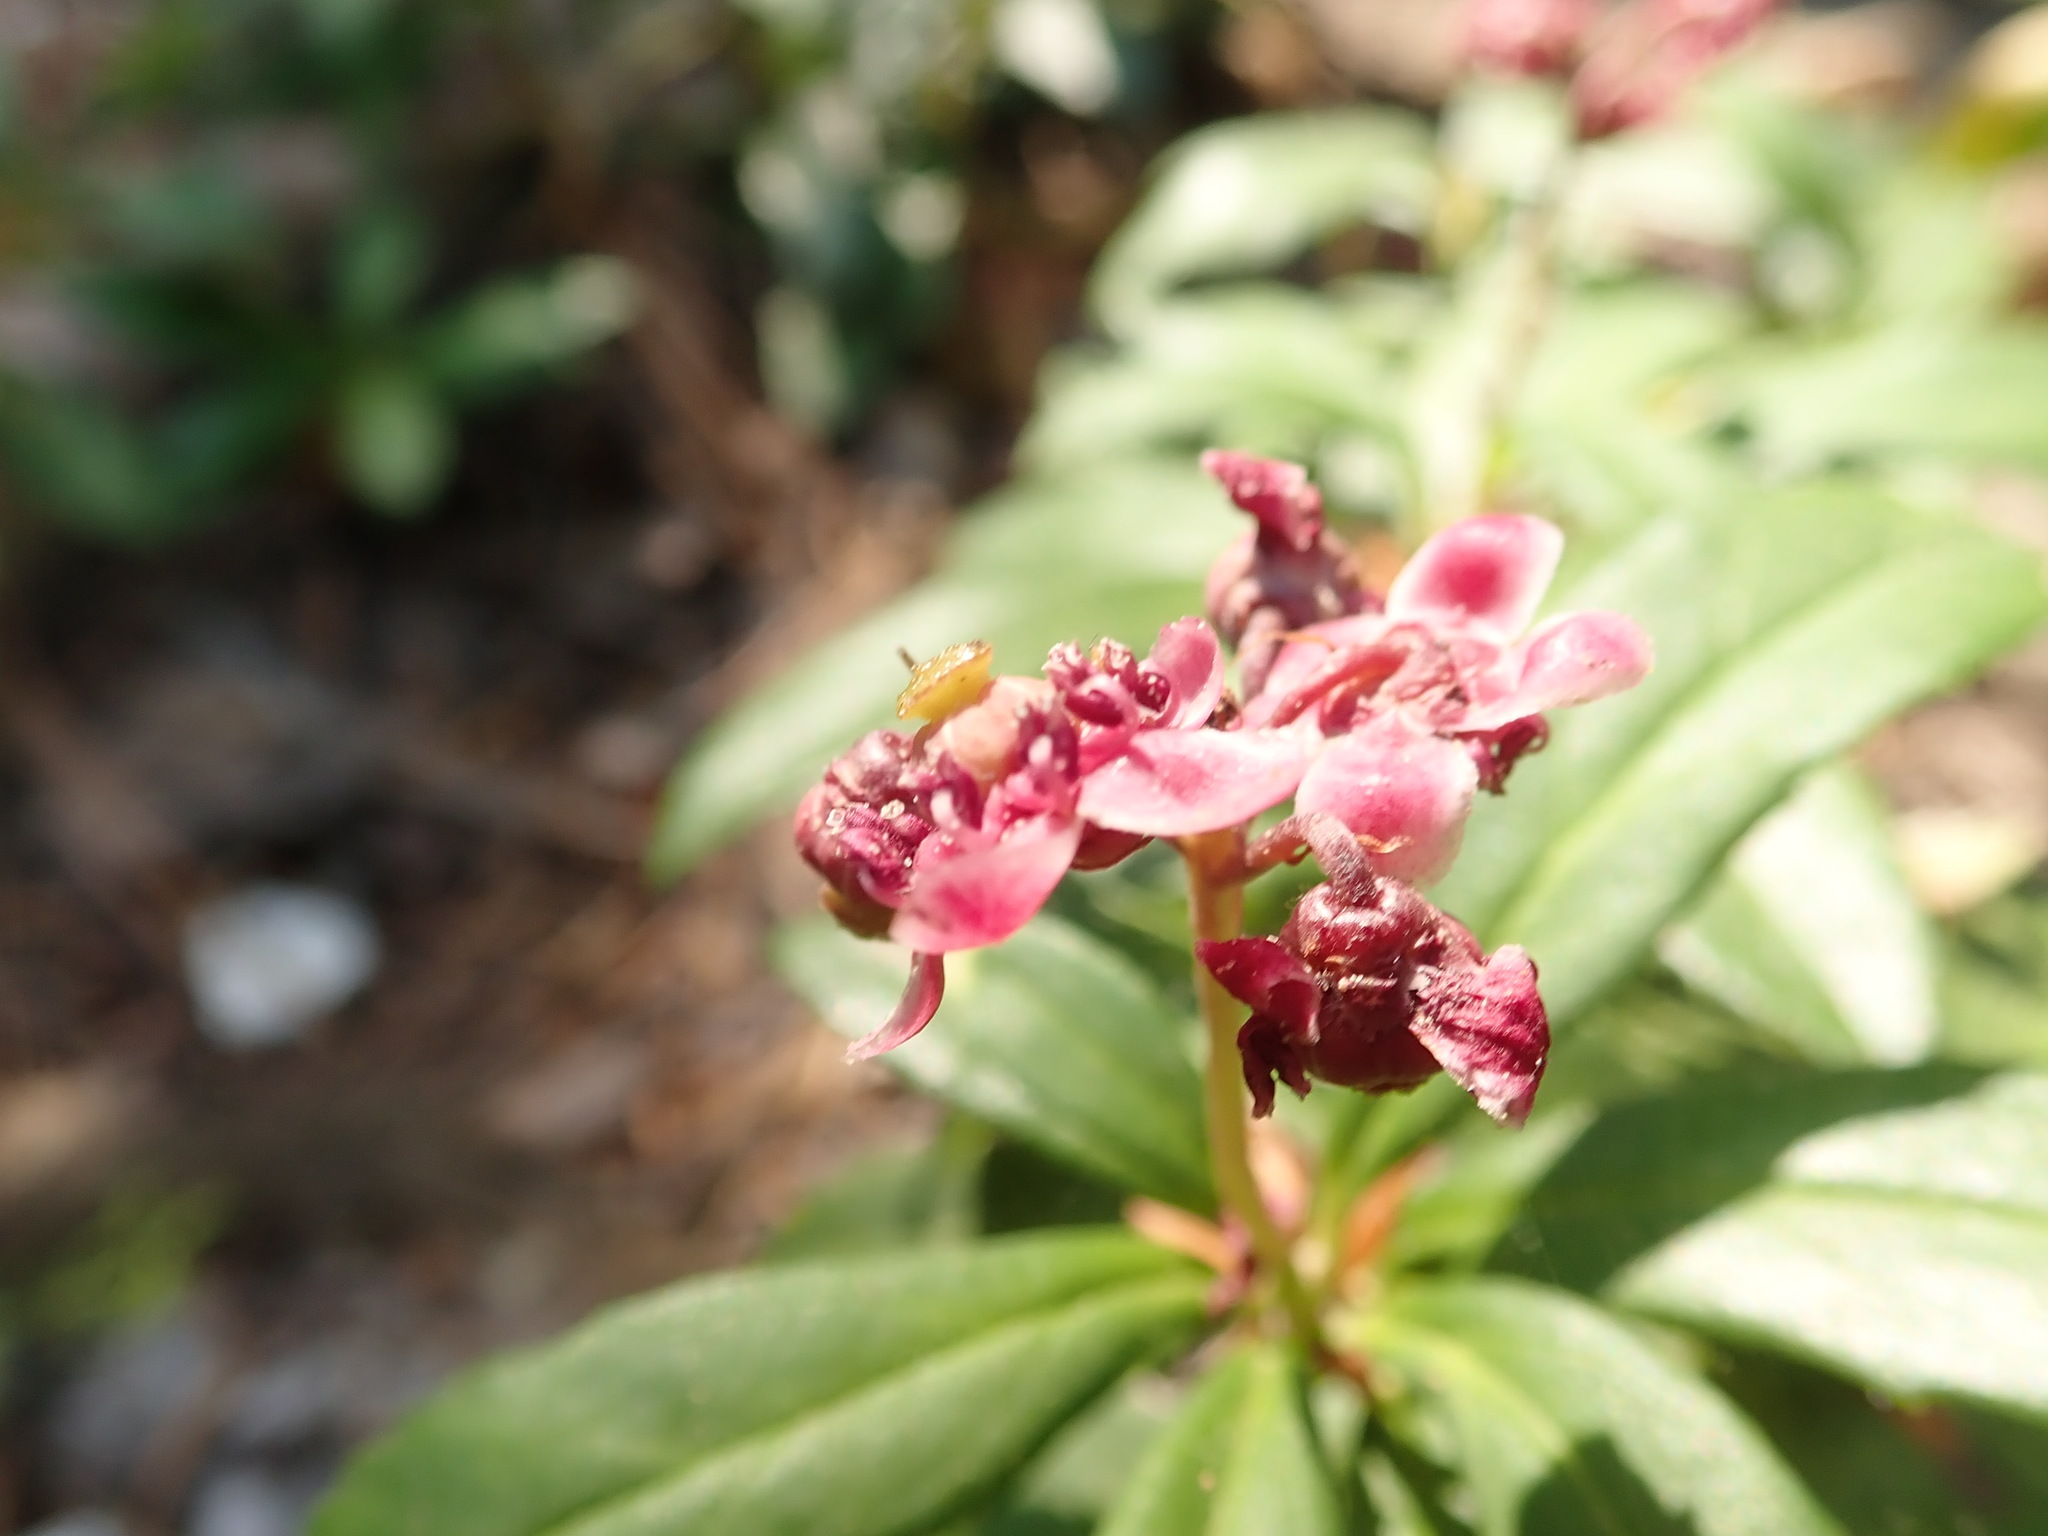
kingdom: Plantae
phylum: Tracheophyta
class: Magnoliopsida
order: Ericales
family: Ericaceae
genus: Chimaphila
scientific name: Chimaphila umbellata
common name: Pipsissewa
